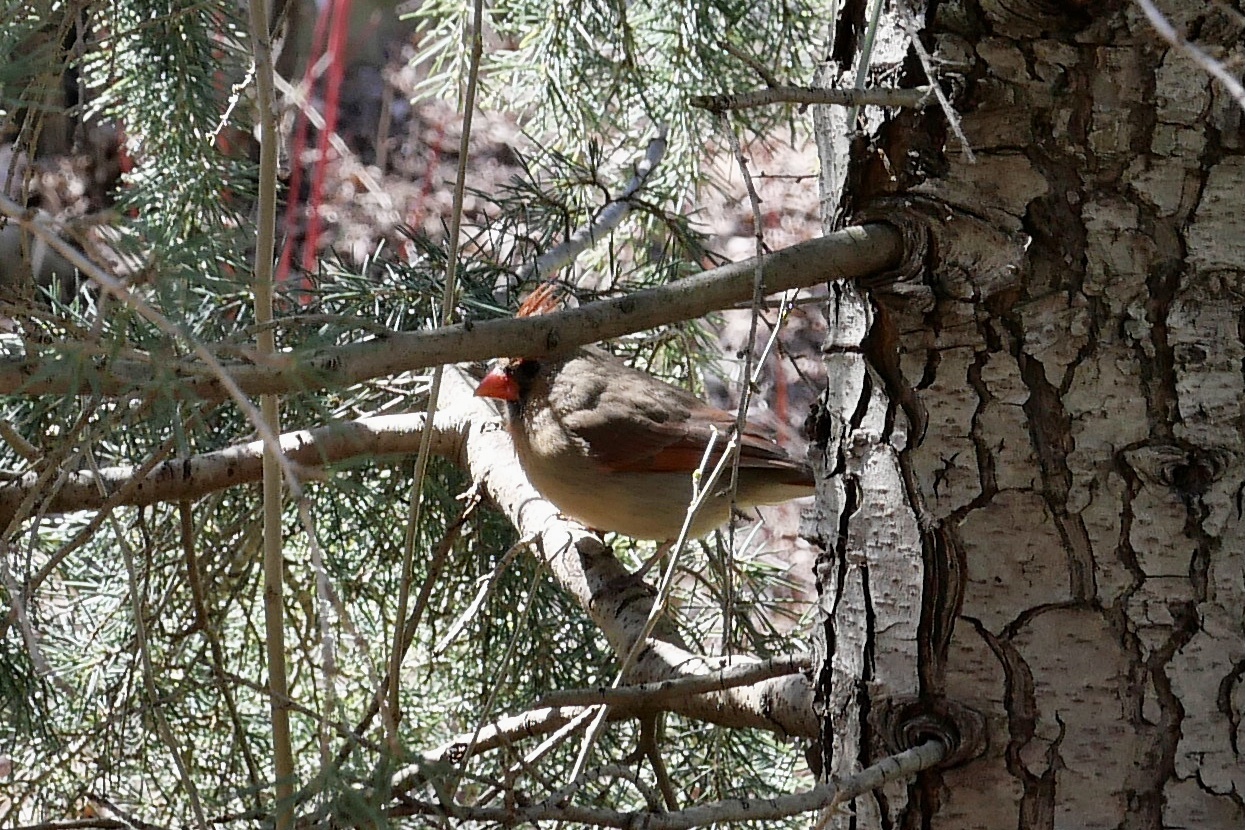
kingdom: Animalia
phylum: Chordata
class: Aves
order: Passeriformes
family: Cardinalidae
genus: Cardinalis
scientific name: Cardinalis cardinalis
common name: Northern cardinal
